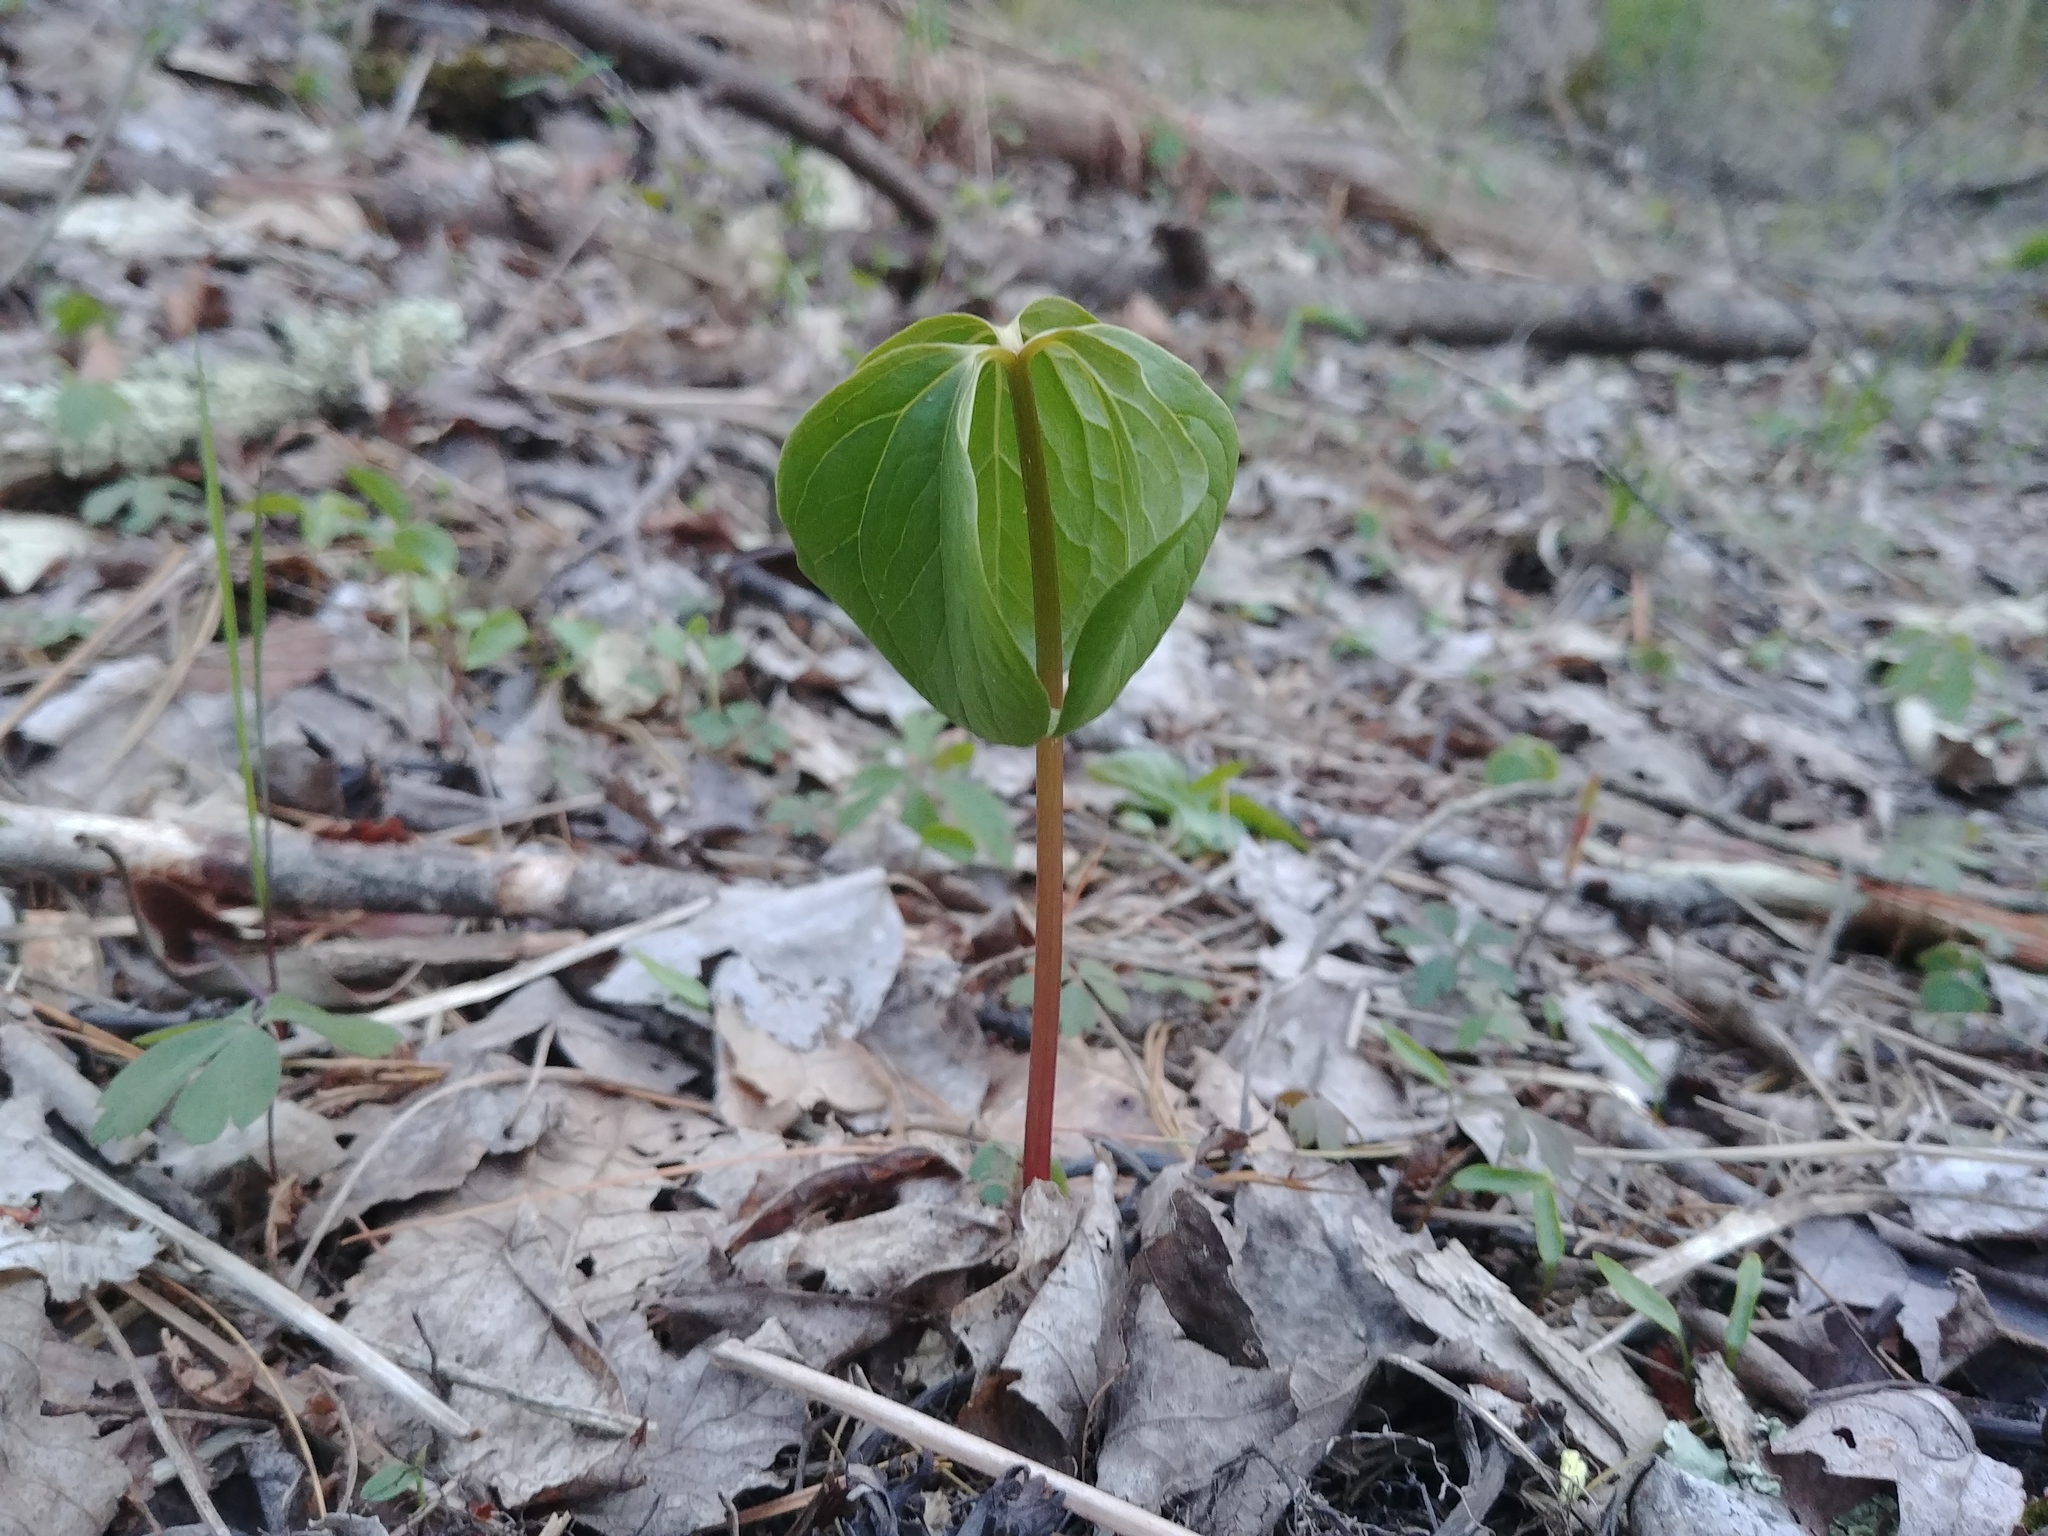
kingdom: Plantae
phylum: Tracheophyta
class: Liliopsida
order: Liliales
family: Melanthiaceae
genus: Trillium
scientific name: Trillium cernuum
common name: Nodding trillium
